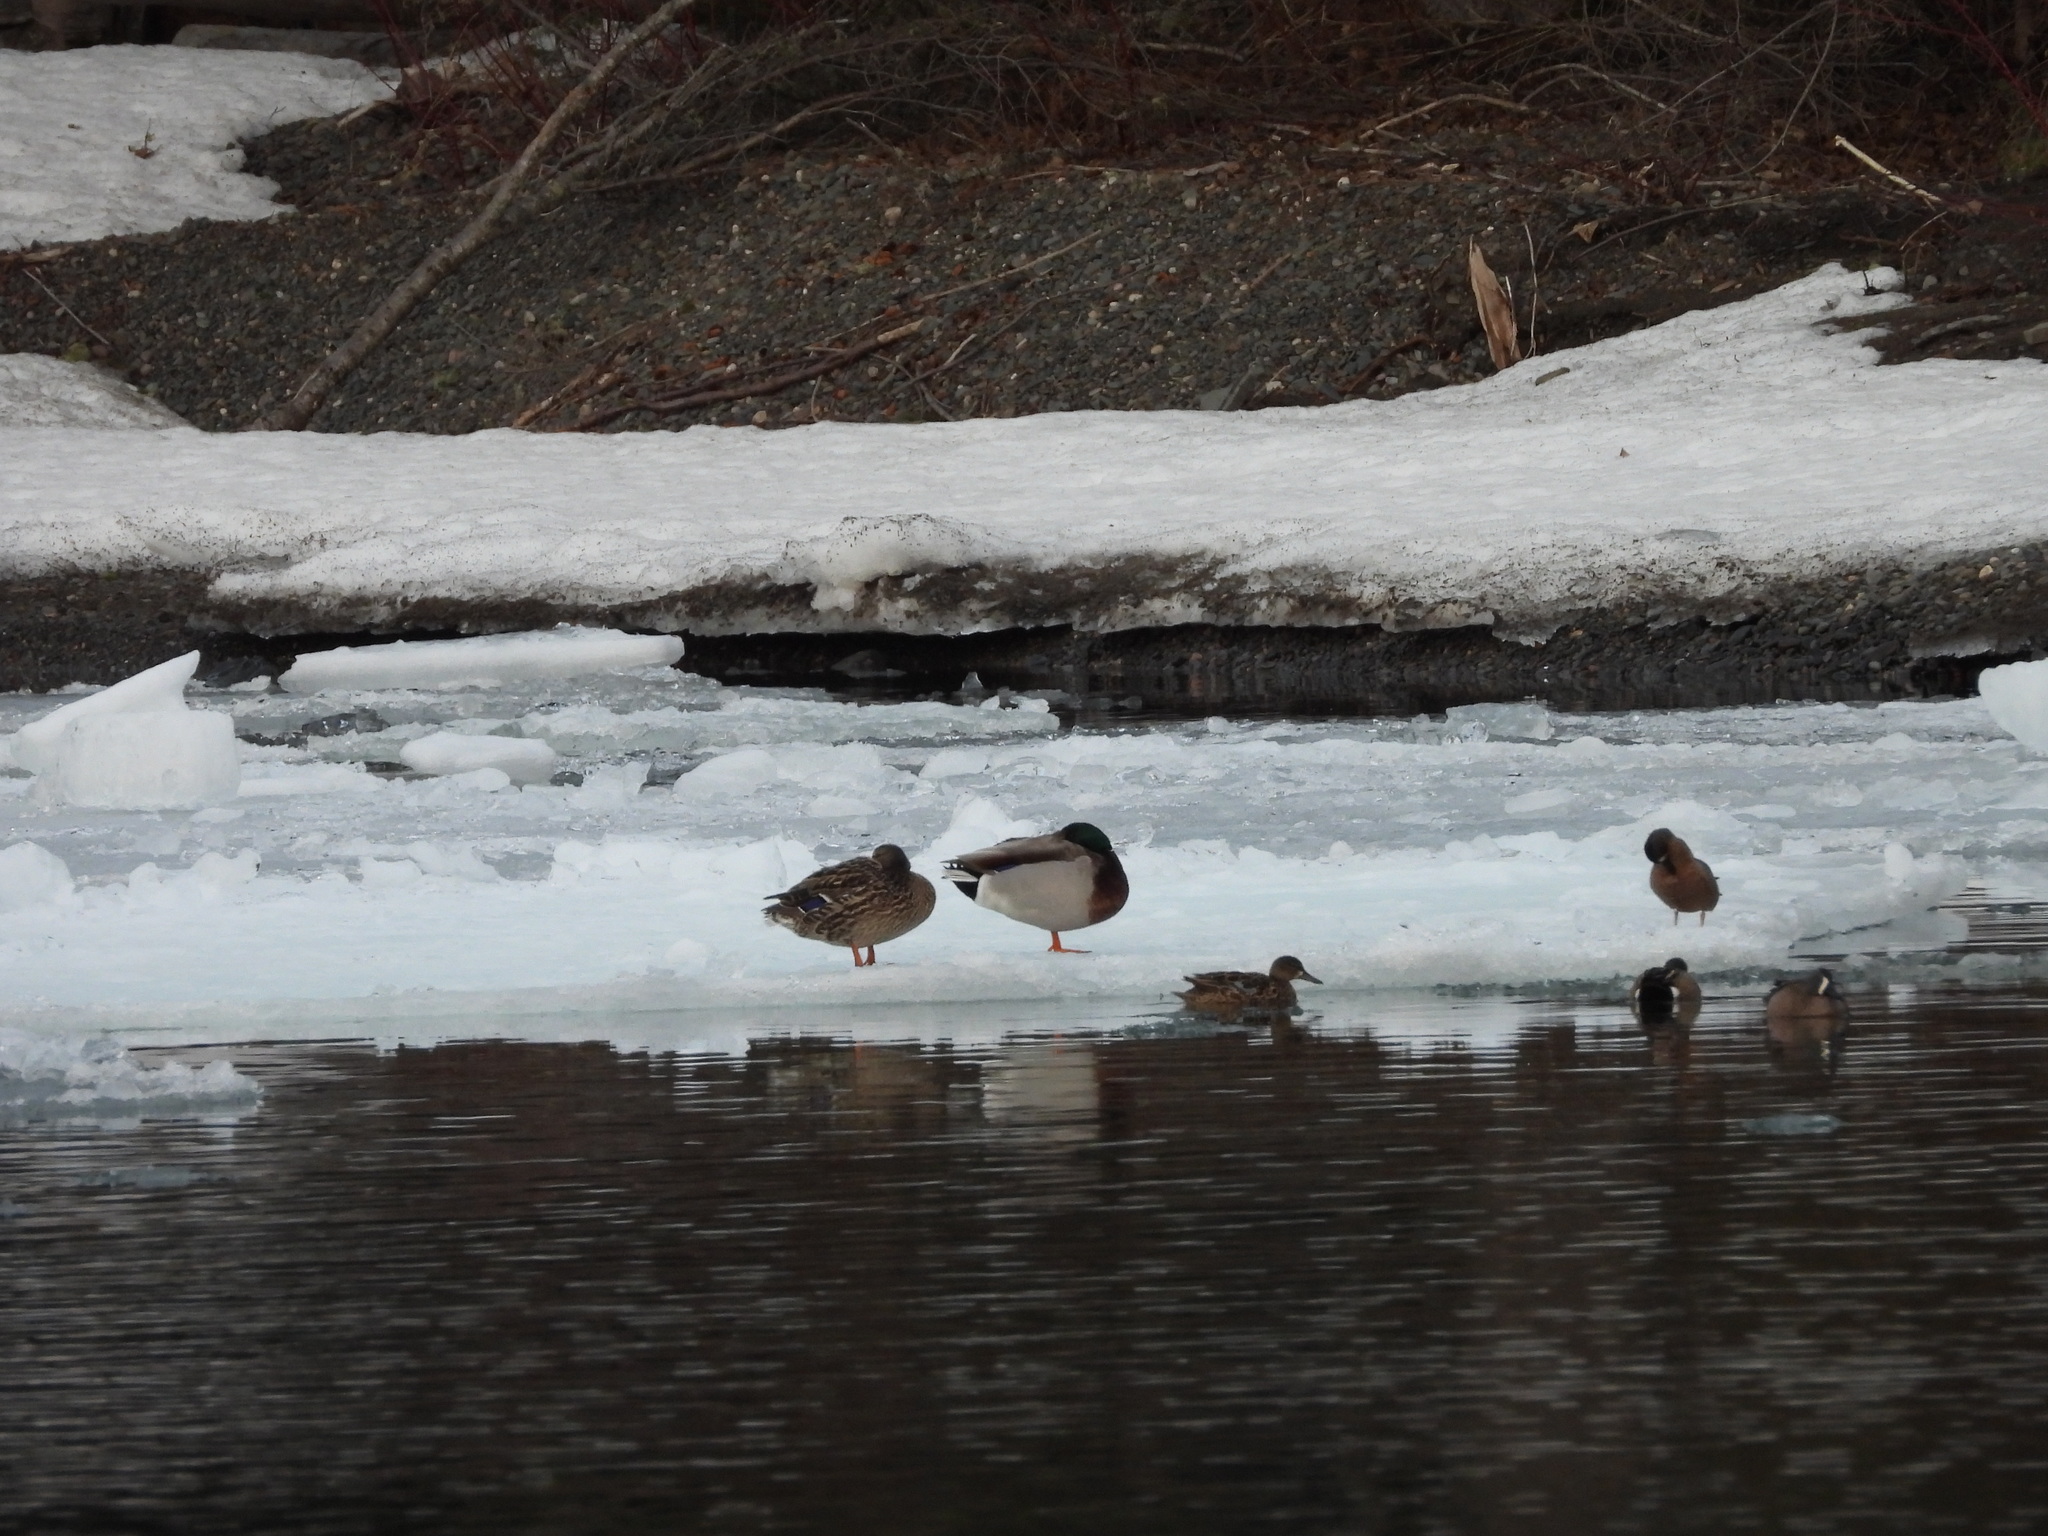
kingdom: Animalia
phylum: Chordata
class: Aves
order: Anseriformes
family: Anatidae
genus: Anas
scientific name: Anas platyrhynchos
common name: Mallard
